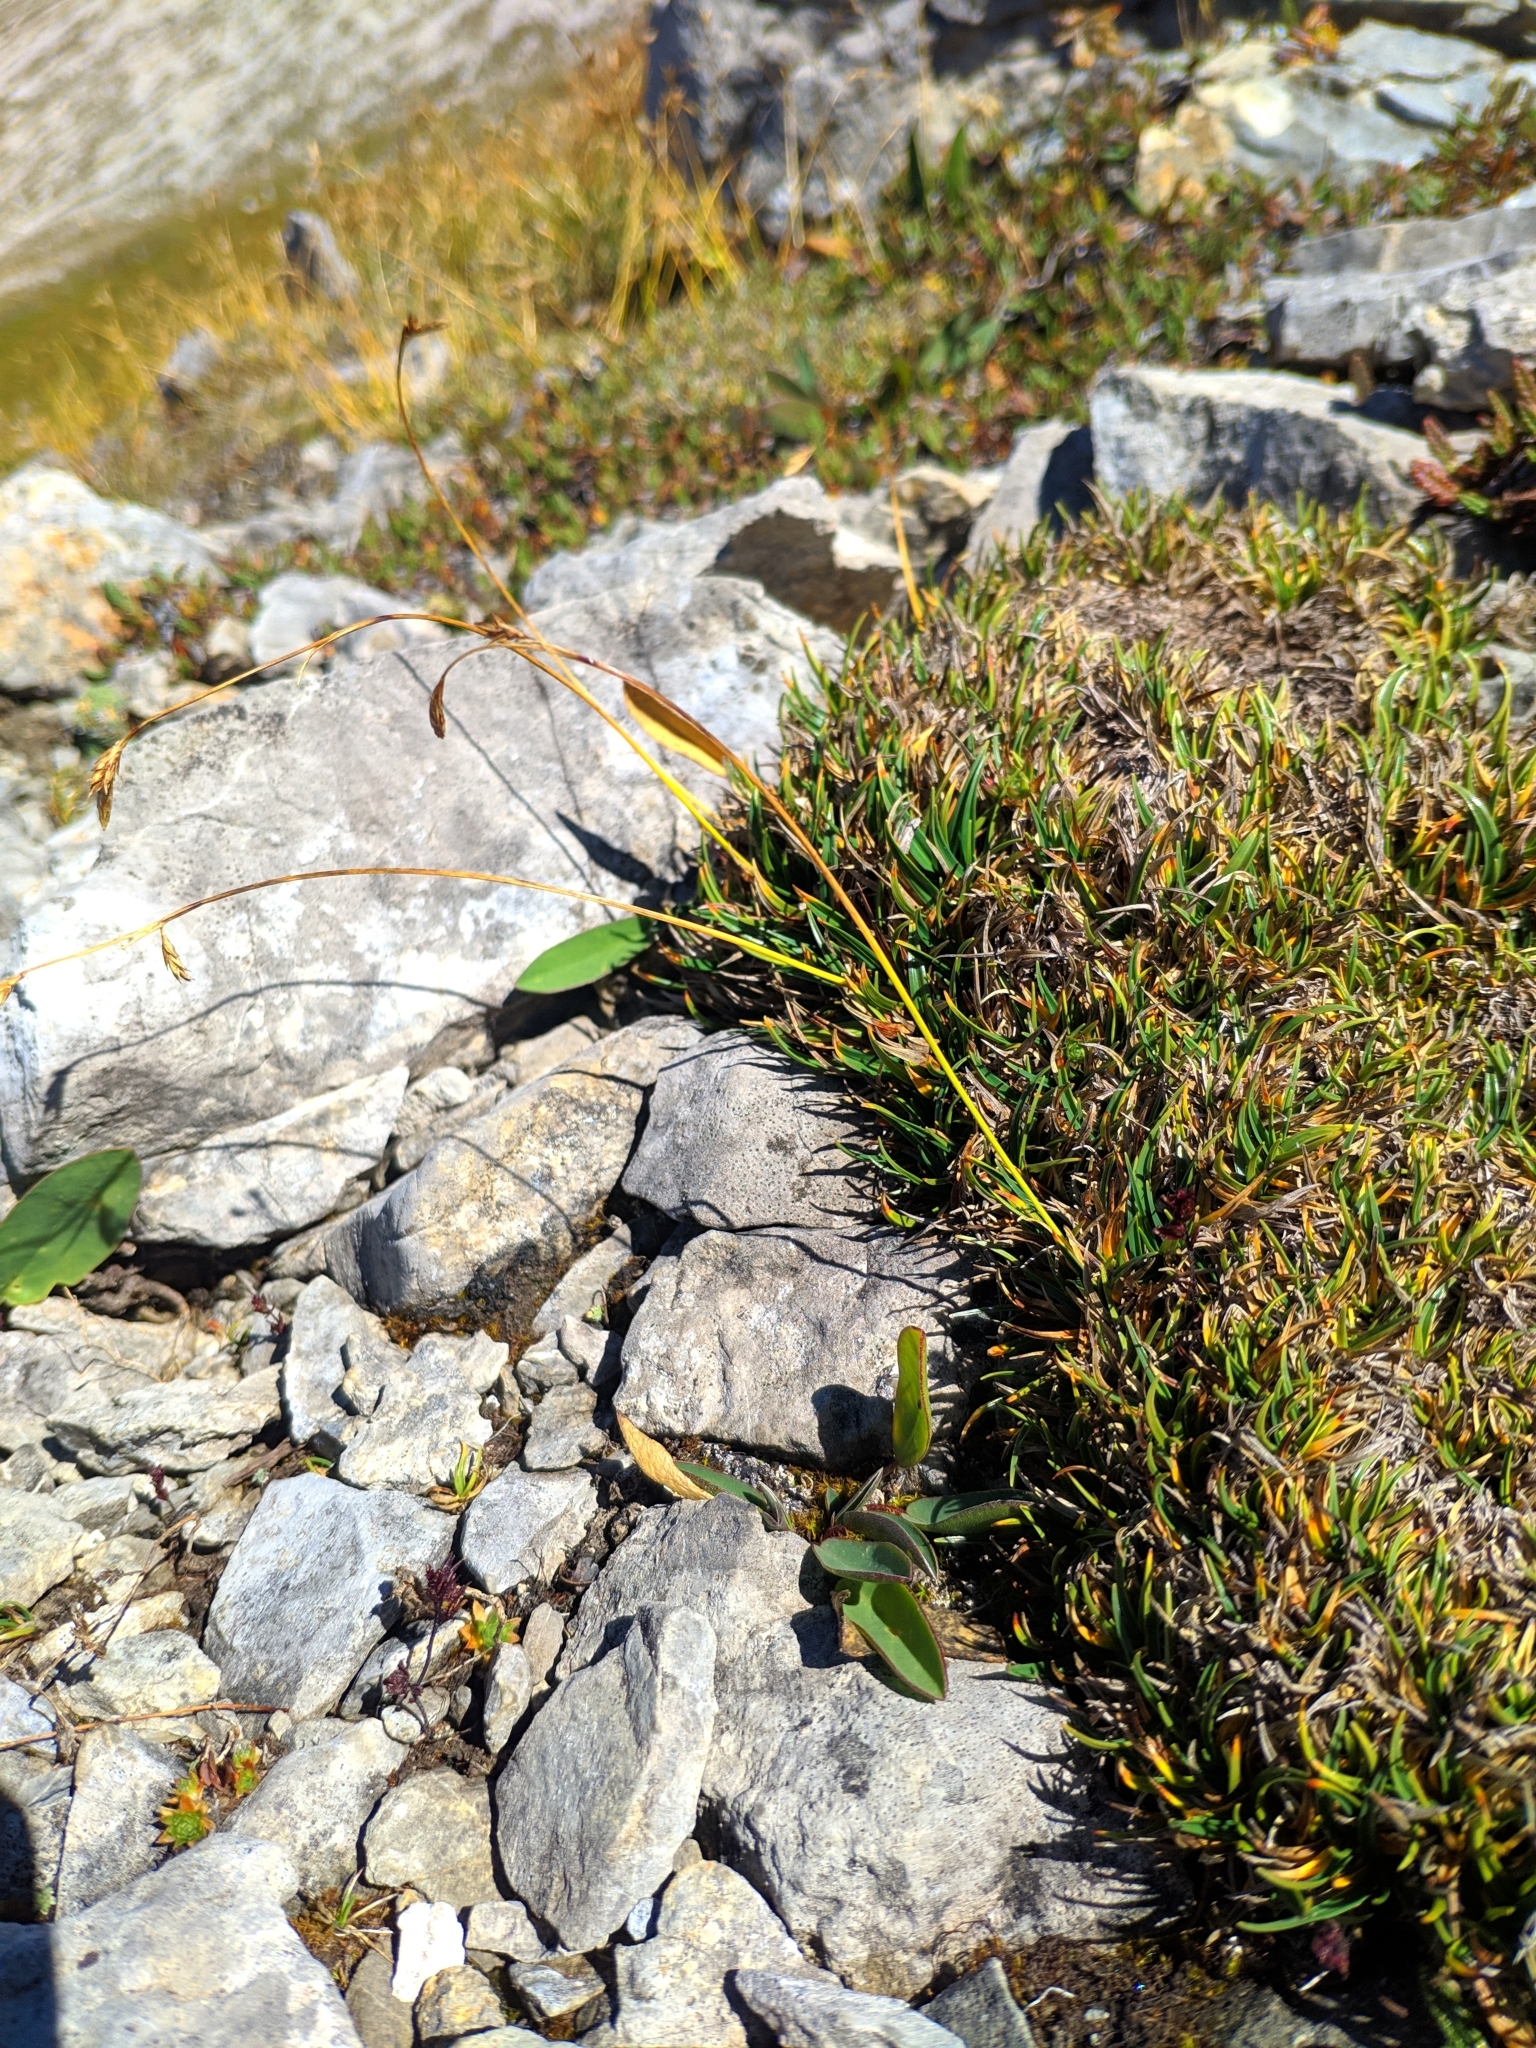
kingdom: Plantae
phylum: Tracheophyta
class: Liliopsida
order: Poales
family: Cyperaceae
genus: Carex
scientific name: Carex firma
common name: Dwarf pillow sedge
